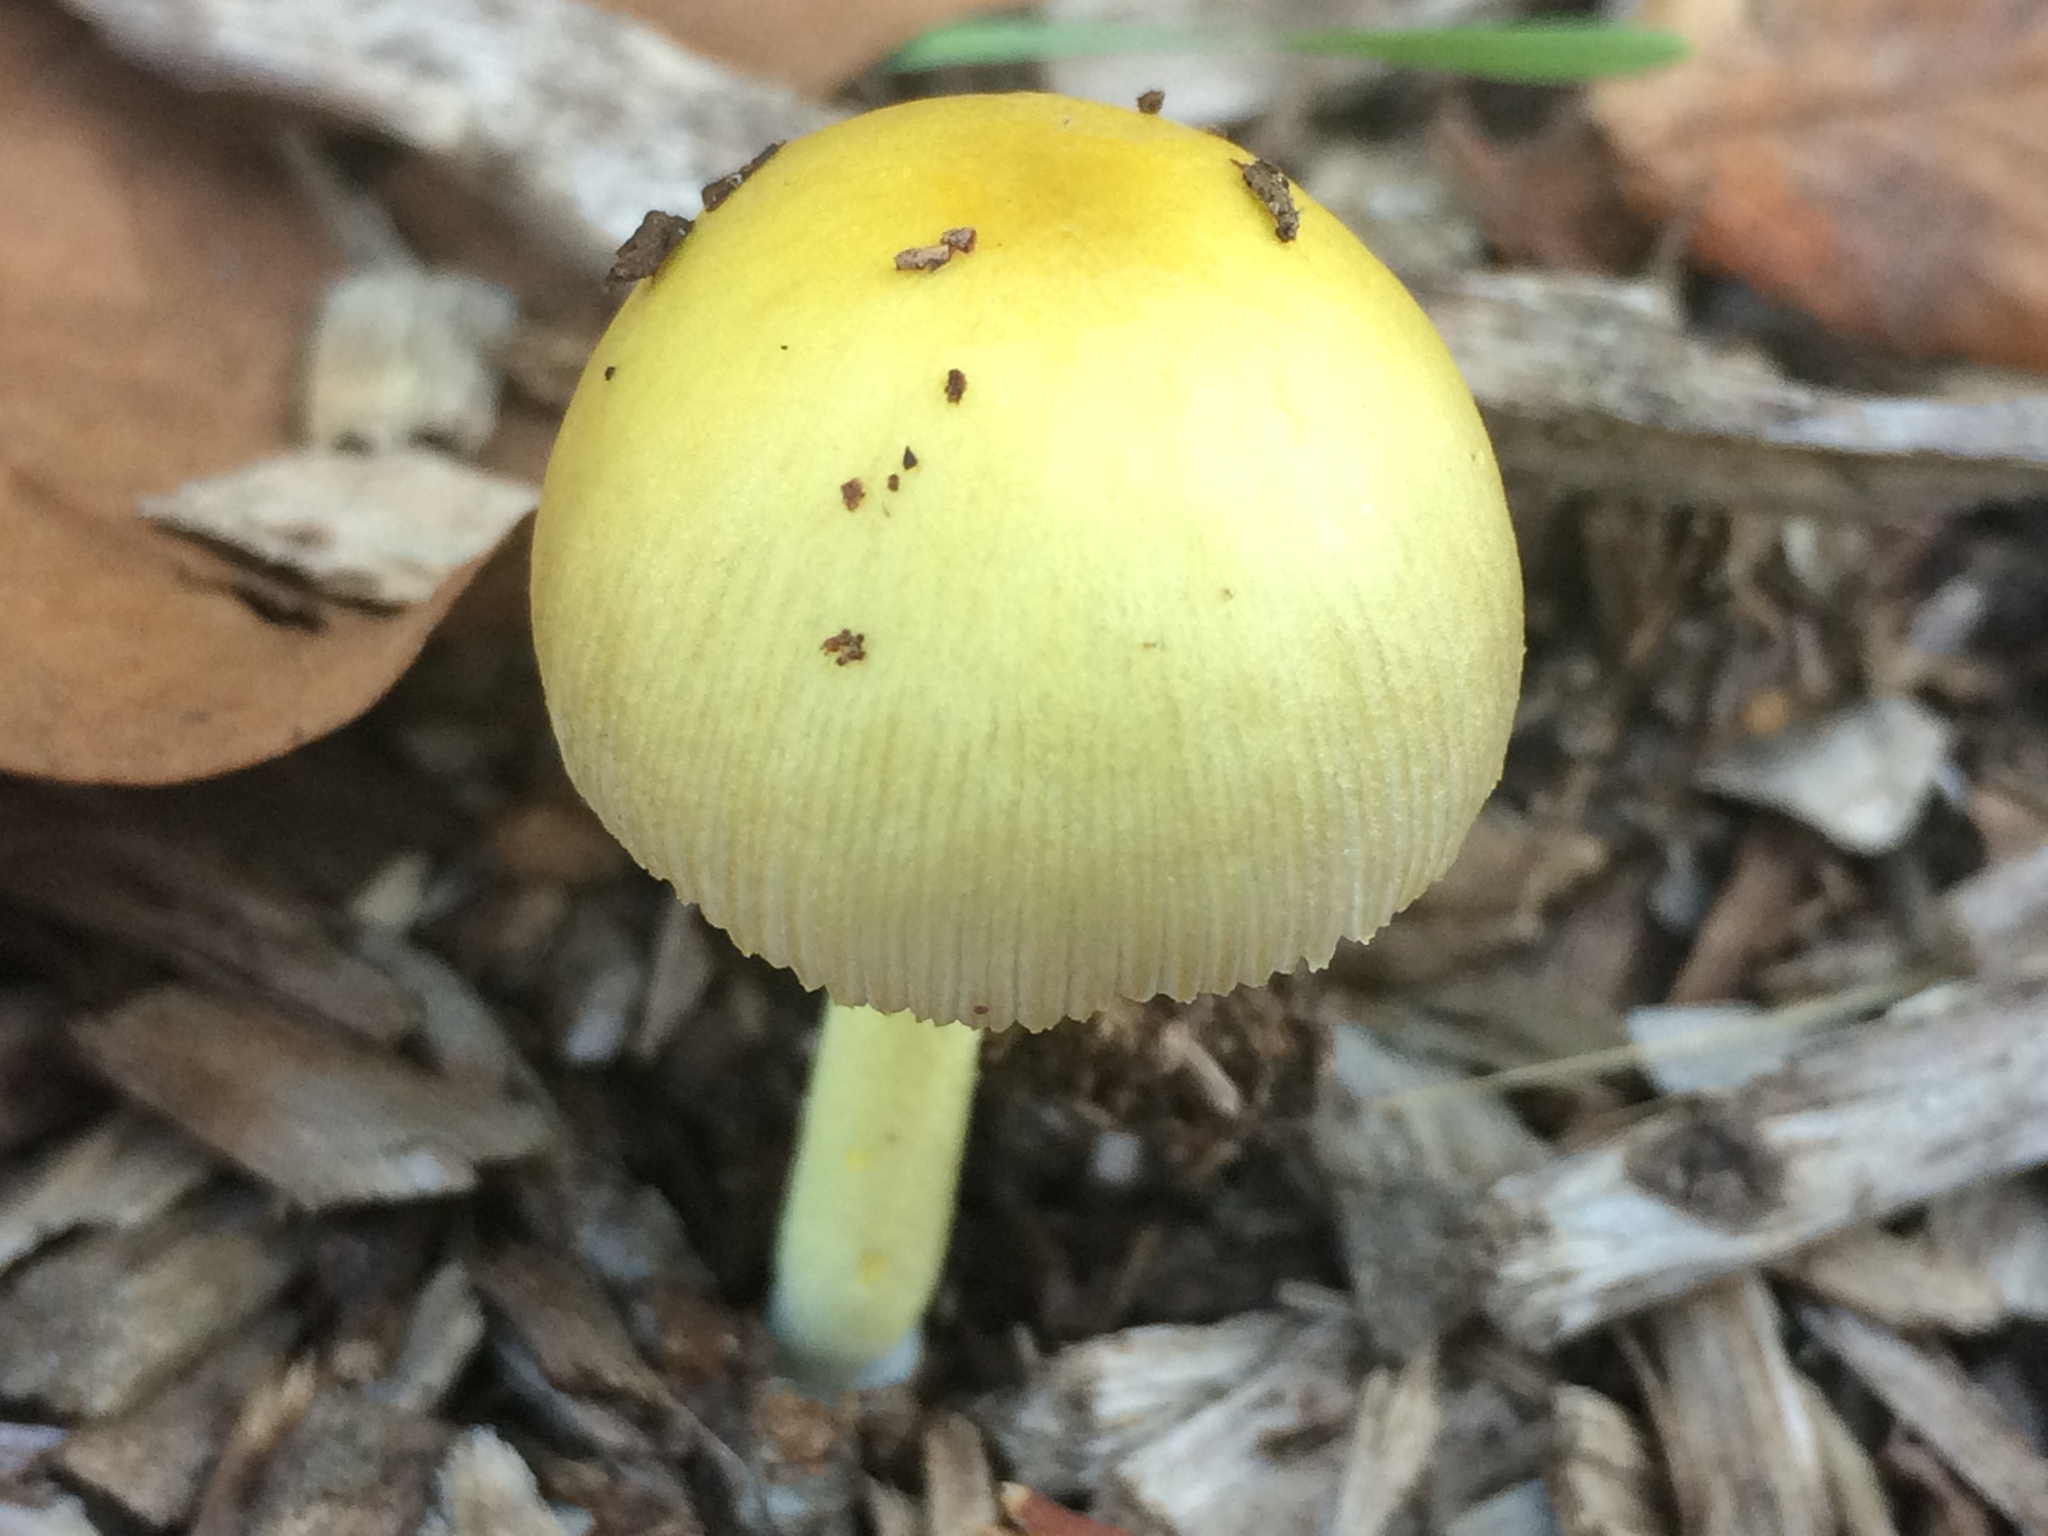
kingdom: Fungi
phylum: Basidiomycota
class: Agaricomycetes
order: Agaricales
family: Bolbitiaceae
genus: Bolbitius
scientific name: Bolbitius titubans
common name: Yellow fieldcap
